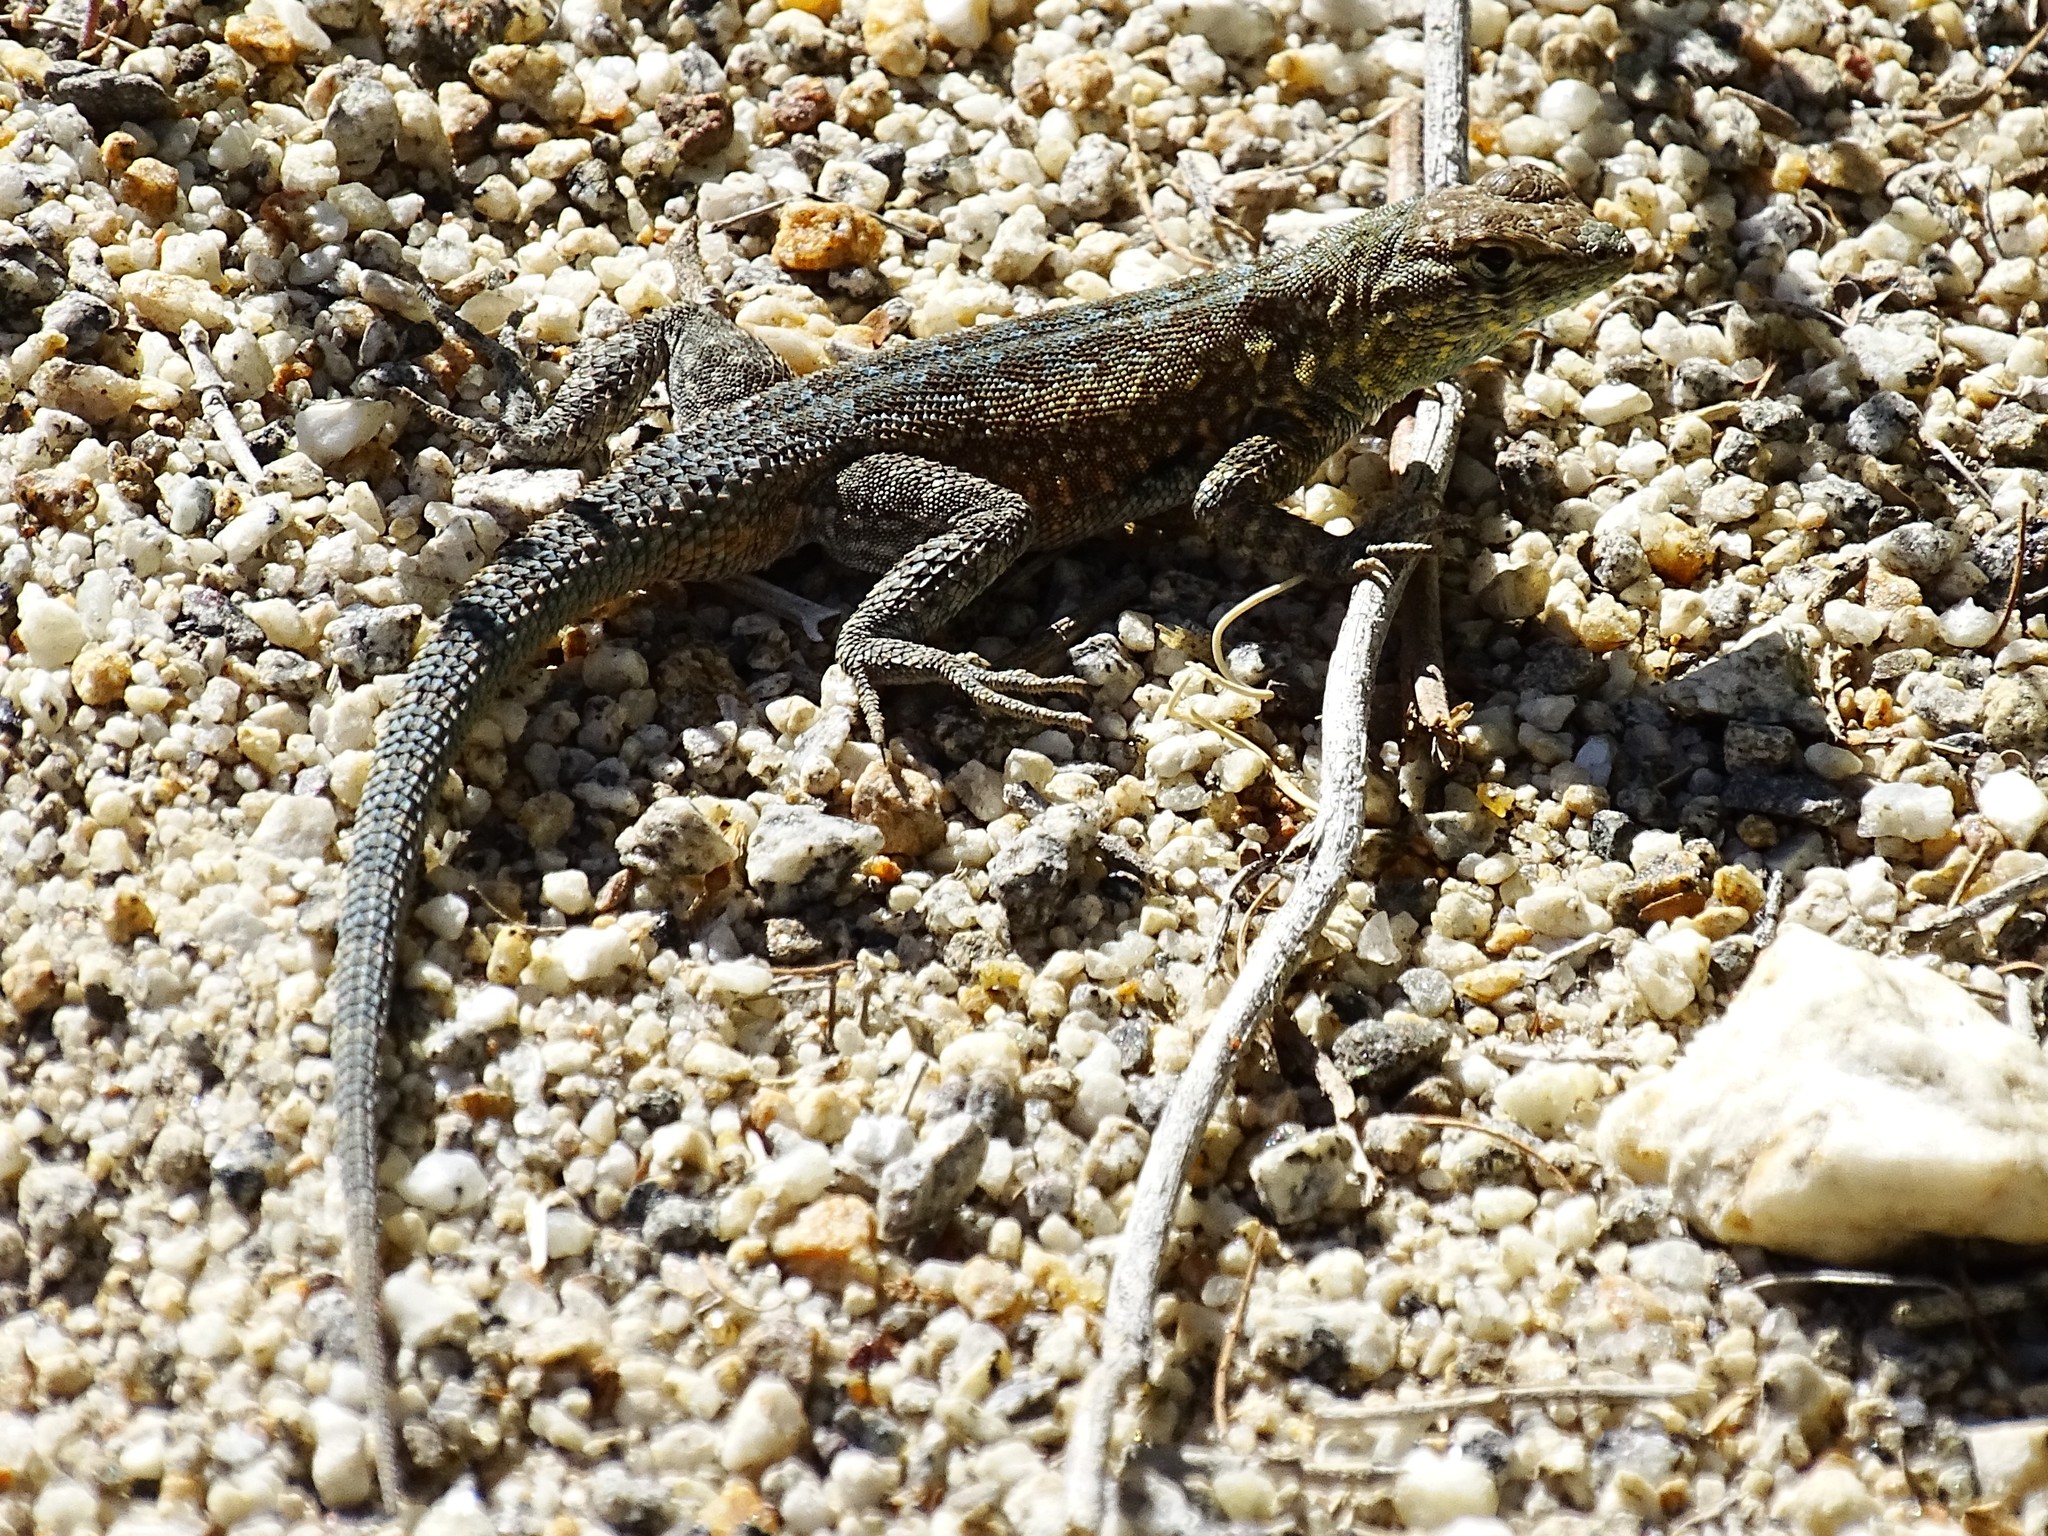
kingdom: Animalia
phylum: Chordata
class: Squamata
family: Phrynosomatidae
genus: Uta
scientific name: Uta stansburiana
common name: Side-blotched lizard
